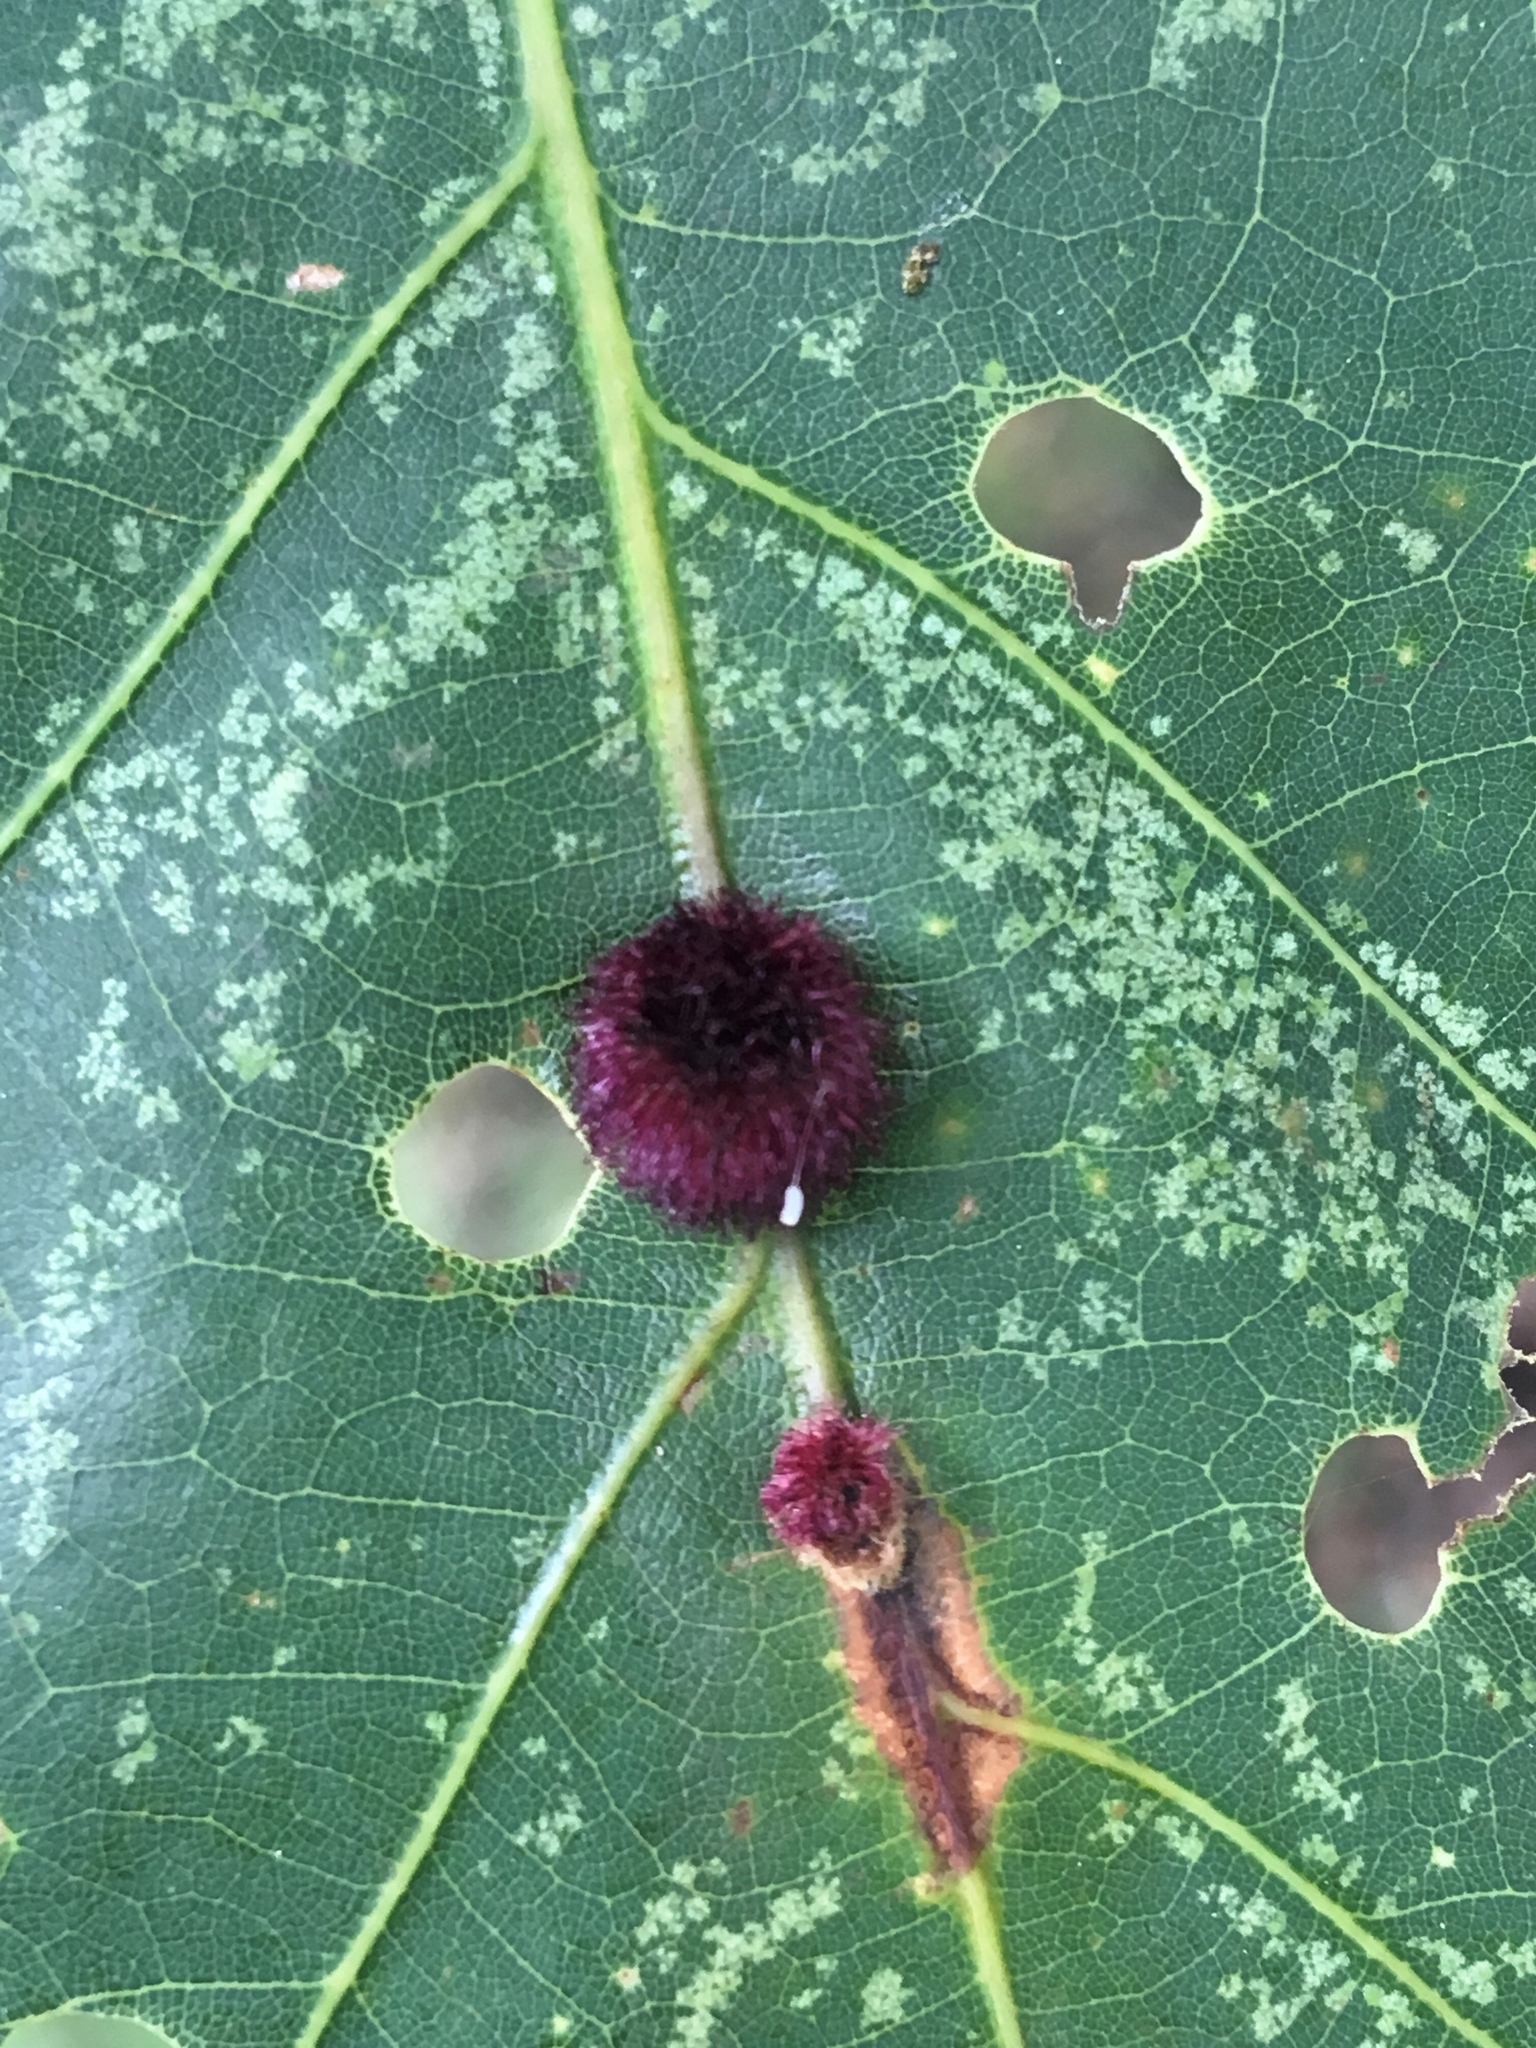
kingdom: Animalia
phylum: Arthropoda
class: Insecta
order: Hymenoptera
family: Cynipidae
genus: Acraspis
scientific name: Acraspis erinacei
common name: Hedgehog gall wasp
